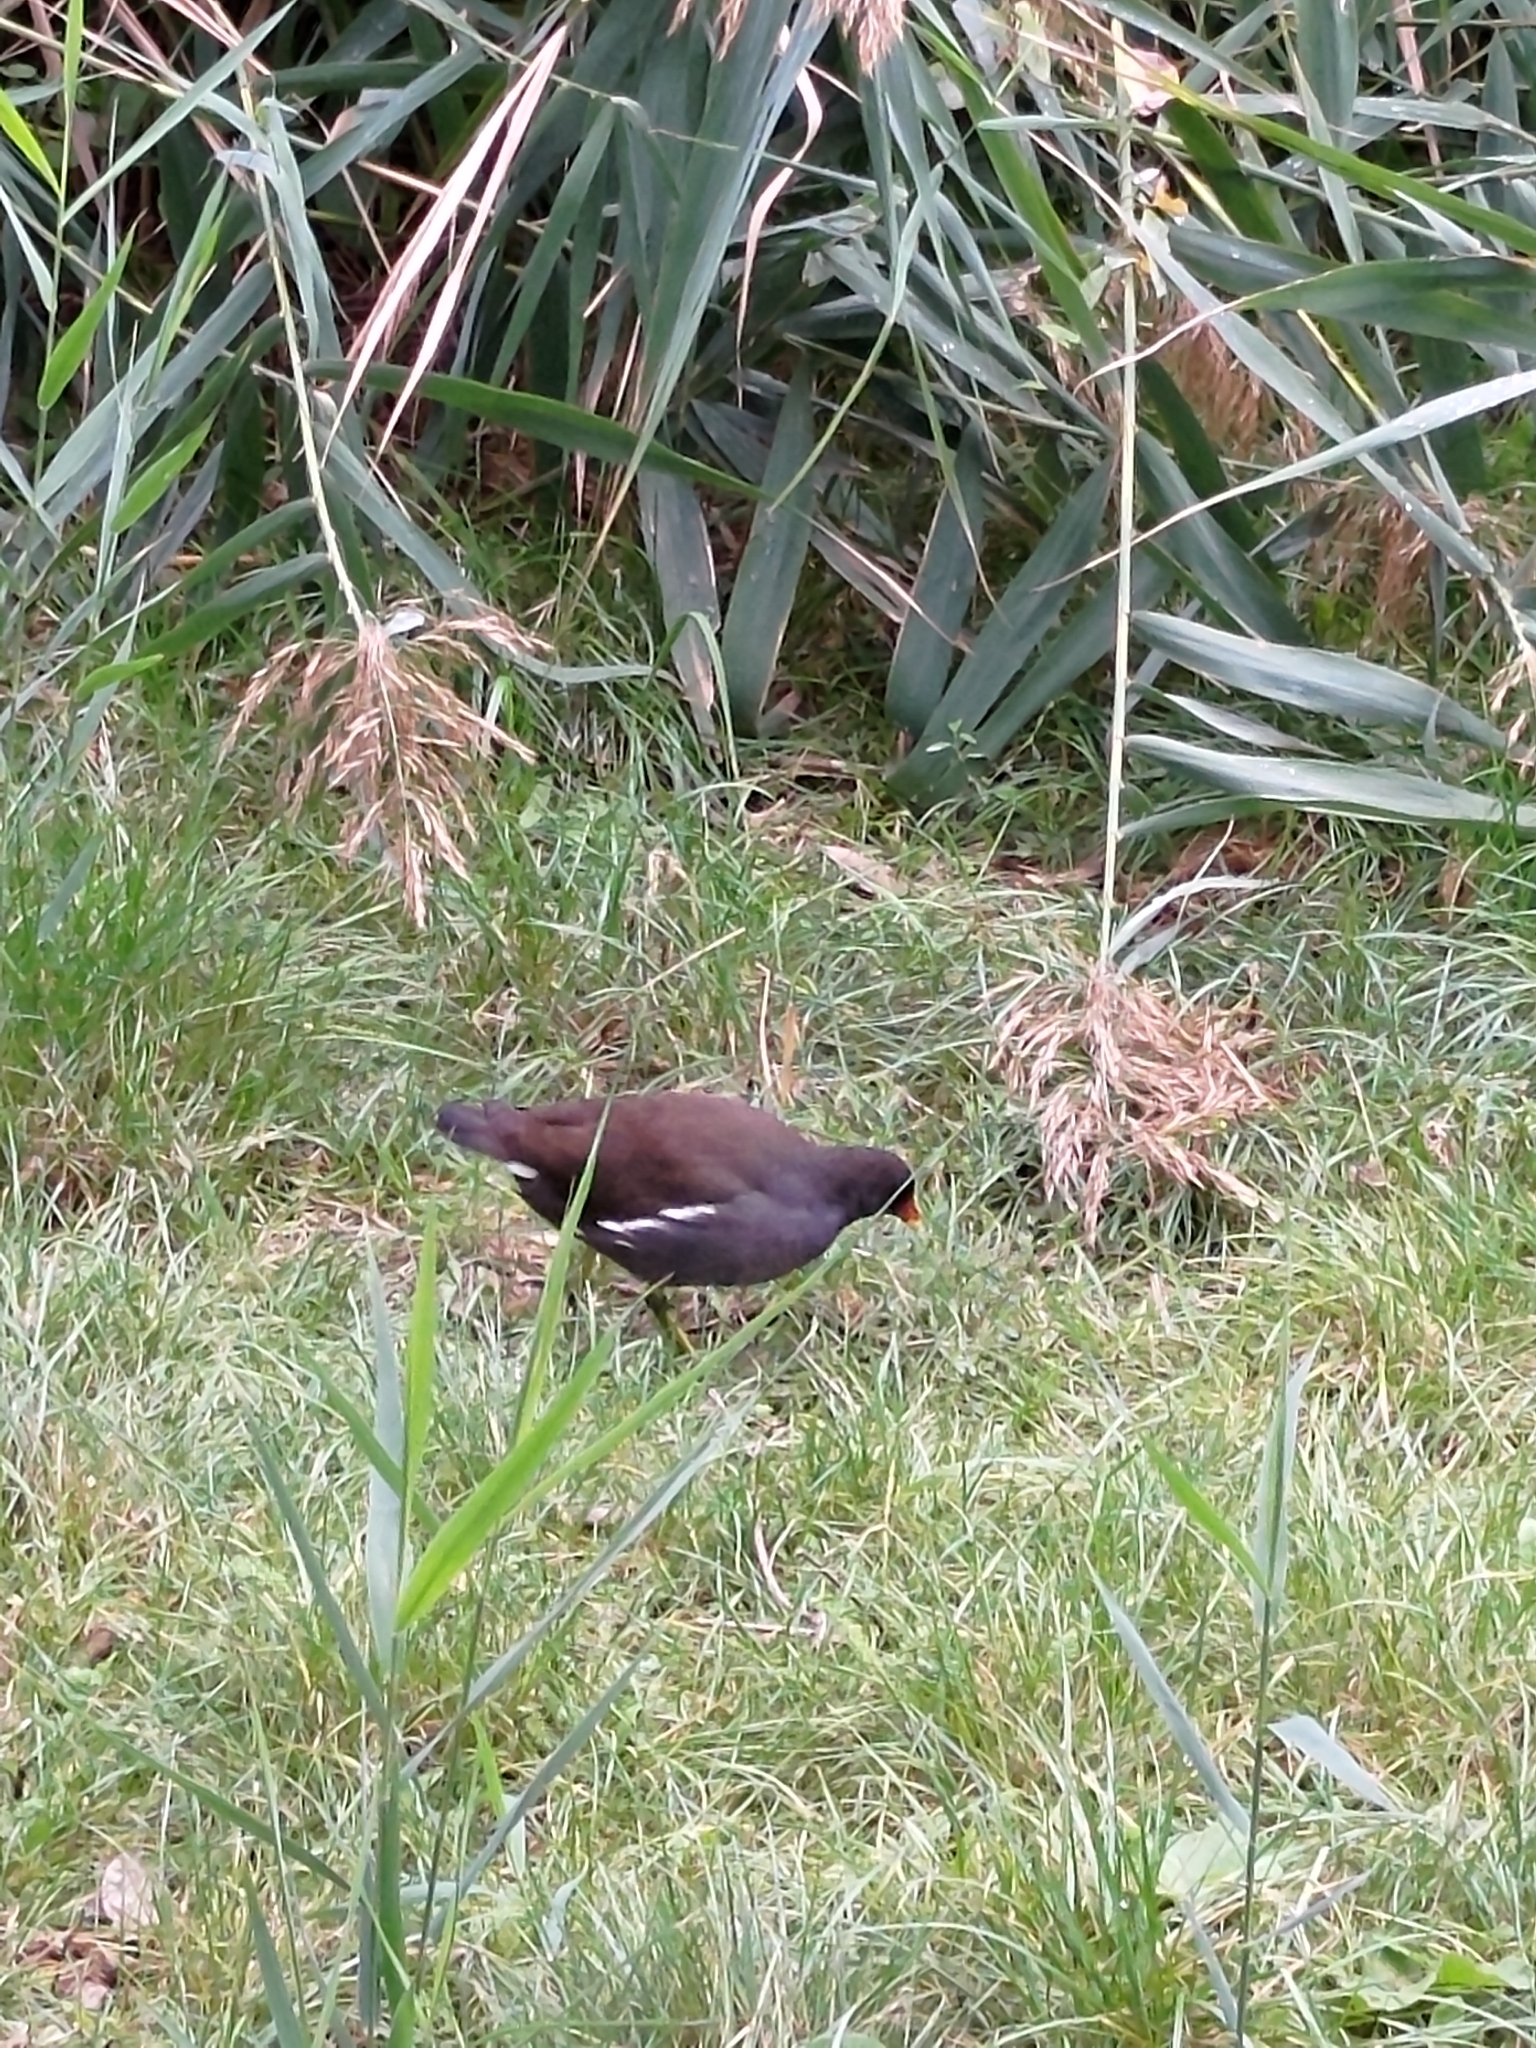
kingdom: Animalia
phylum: Chordata
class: Aves
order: Gruiformes
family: Rallidae
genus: Gallinula
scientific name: Gallinula chloropus
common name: Common moorhen
